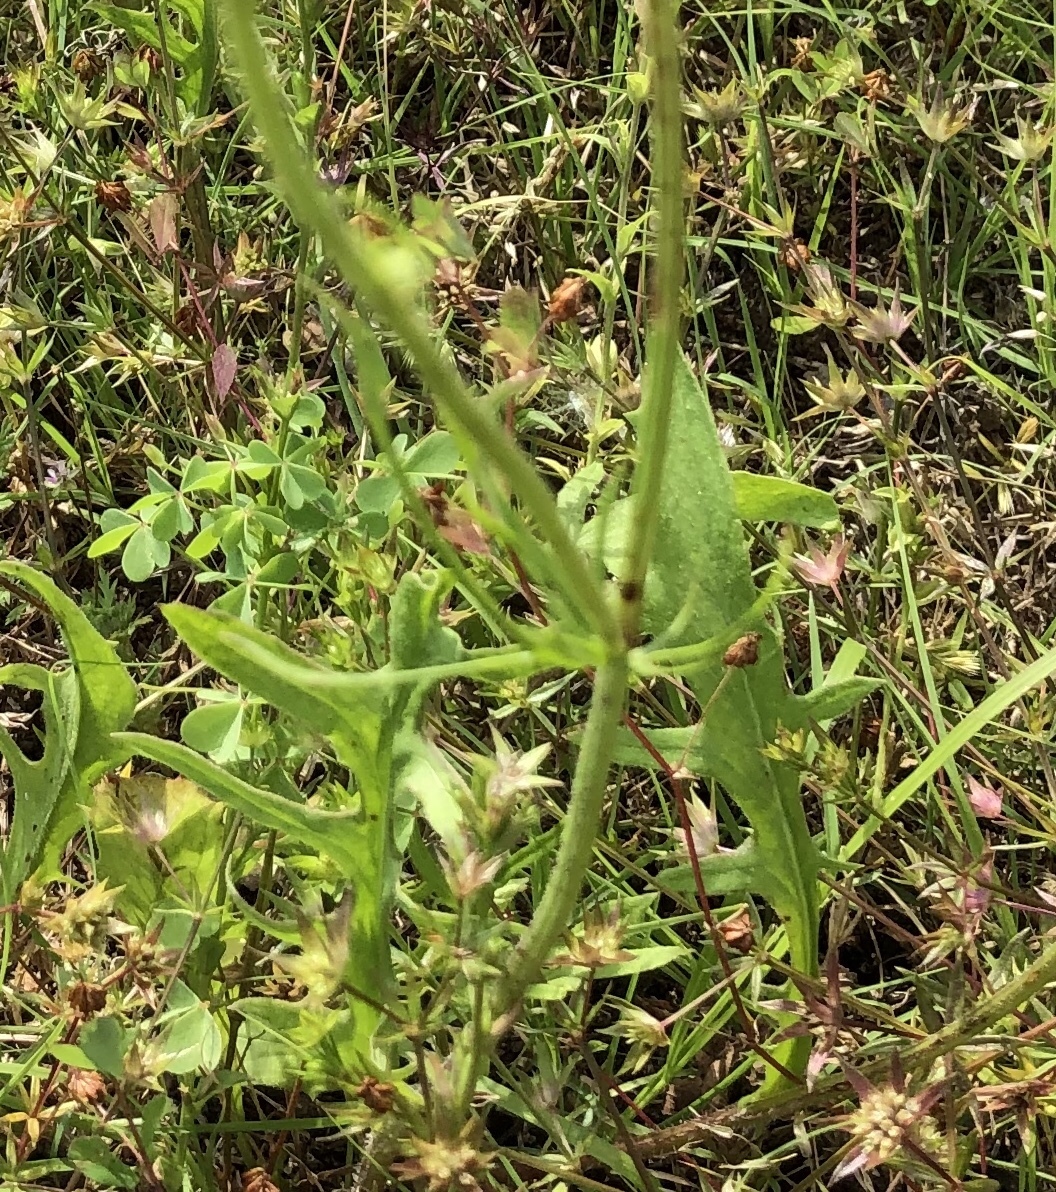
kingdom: Plantae
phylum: Tracheophyta
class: Magnoliopsida
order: Asterales
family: Asteraceae
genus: Pyrrhopappus
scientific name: Pyrrhopappus pauciflorus
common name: Texas false dandelion
